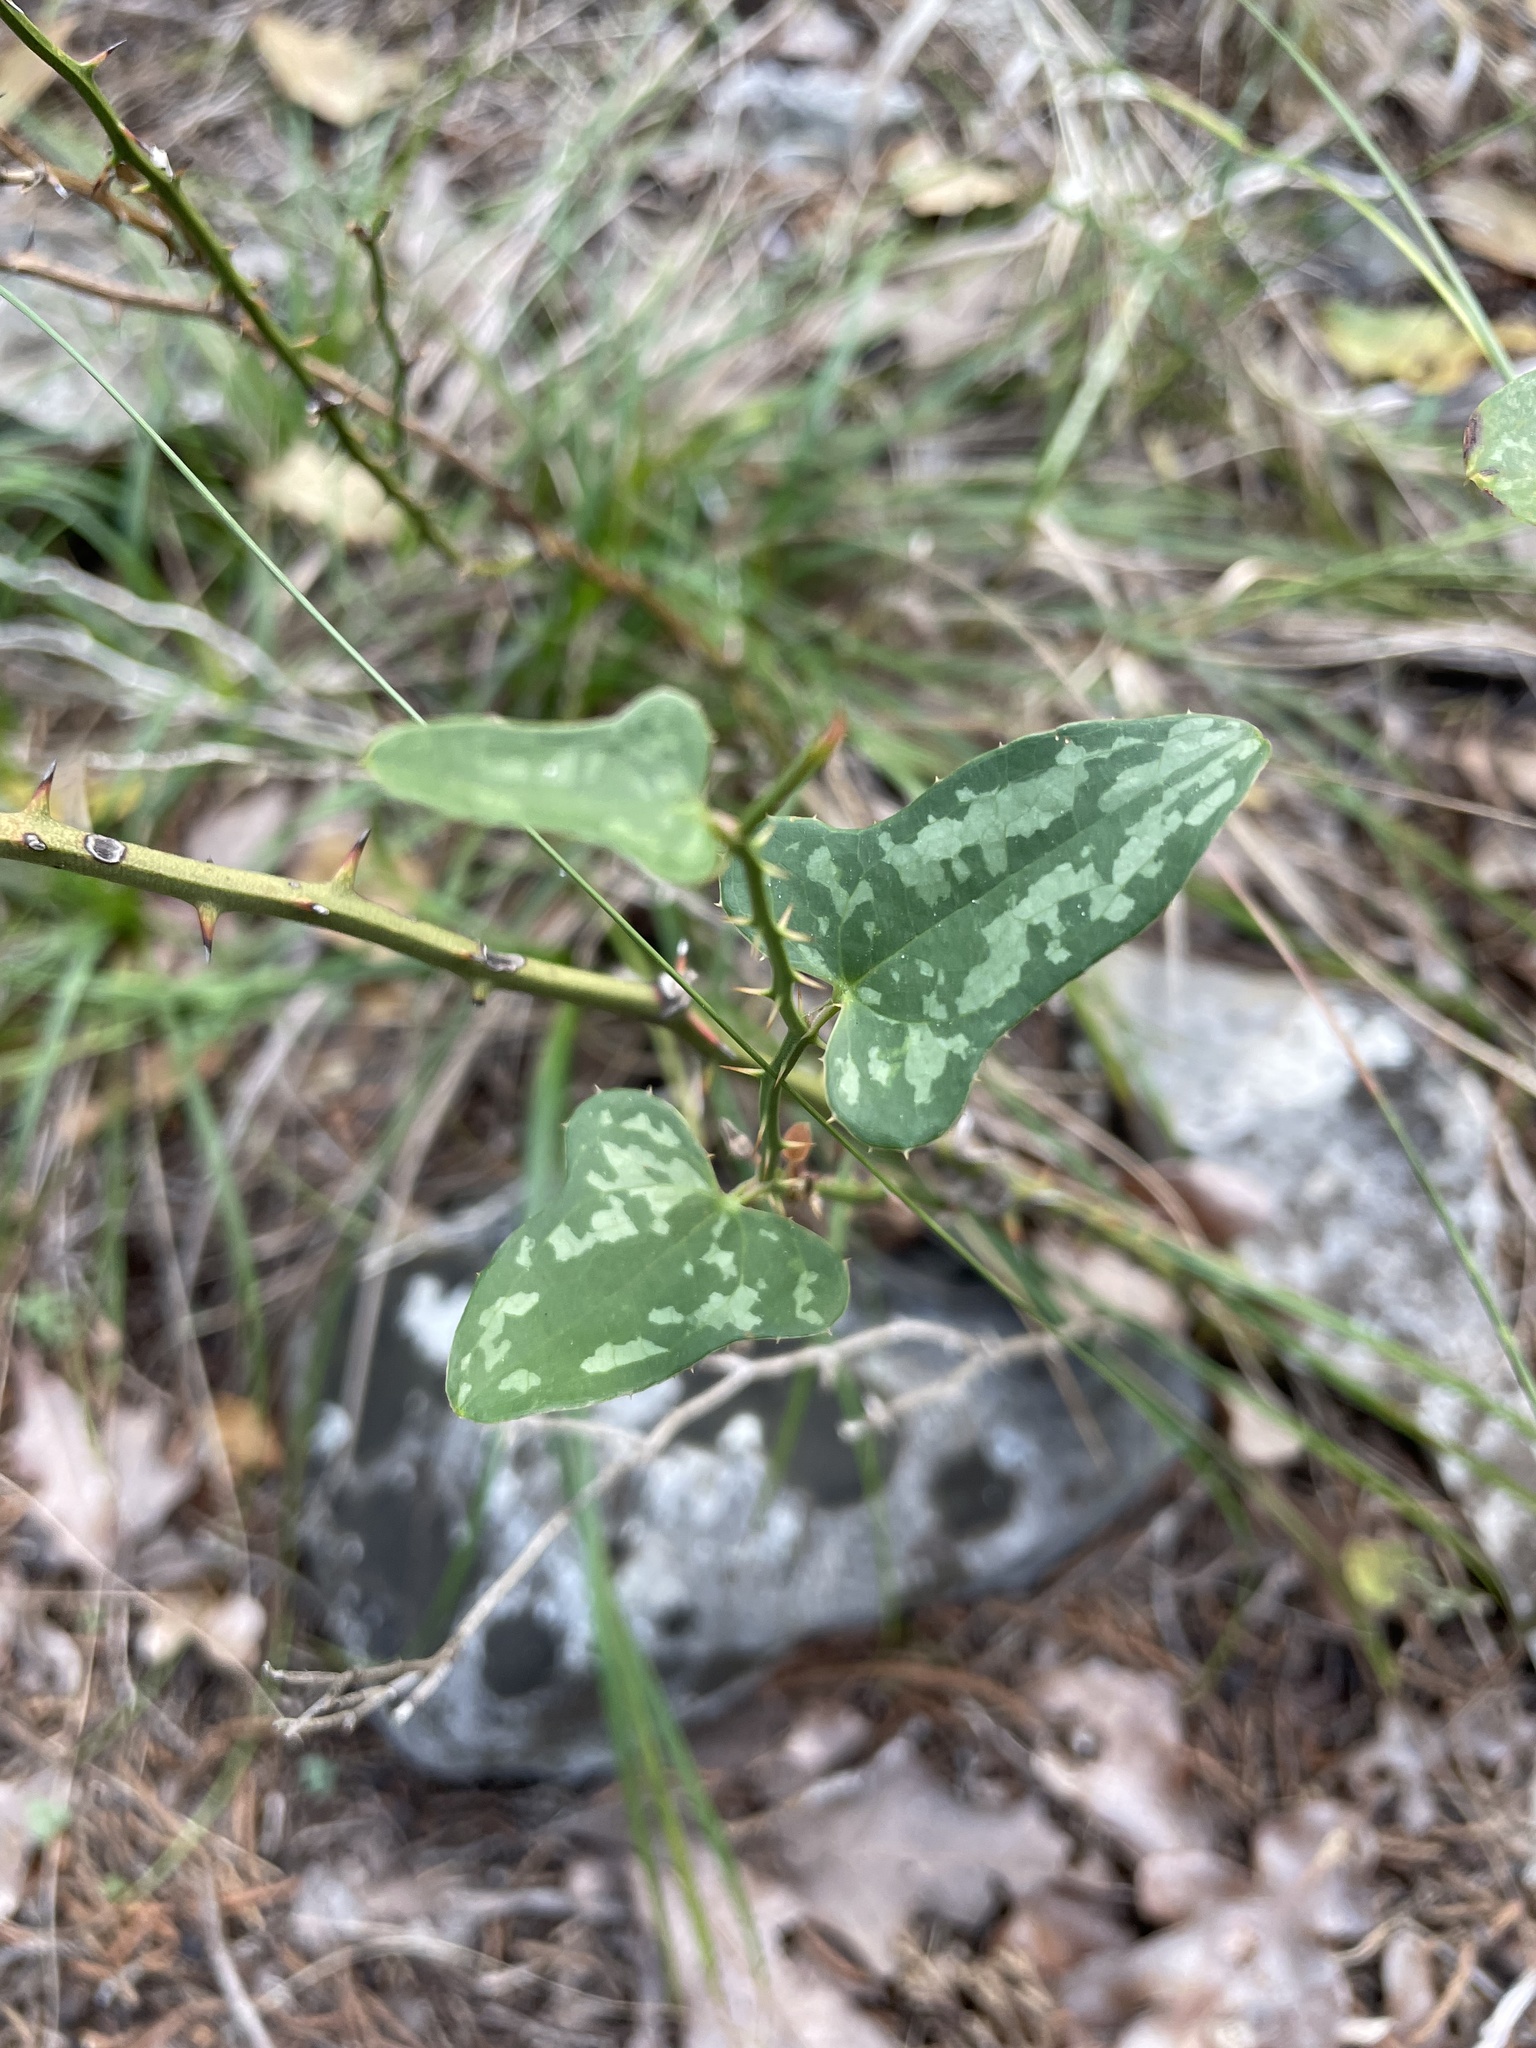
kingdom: Plantae
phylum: Tracheophyta
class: Liliopsida
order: Liliales
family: Smilacaceae
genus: Smilax
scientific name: Smilax bona-nox
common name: Catbrier
